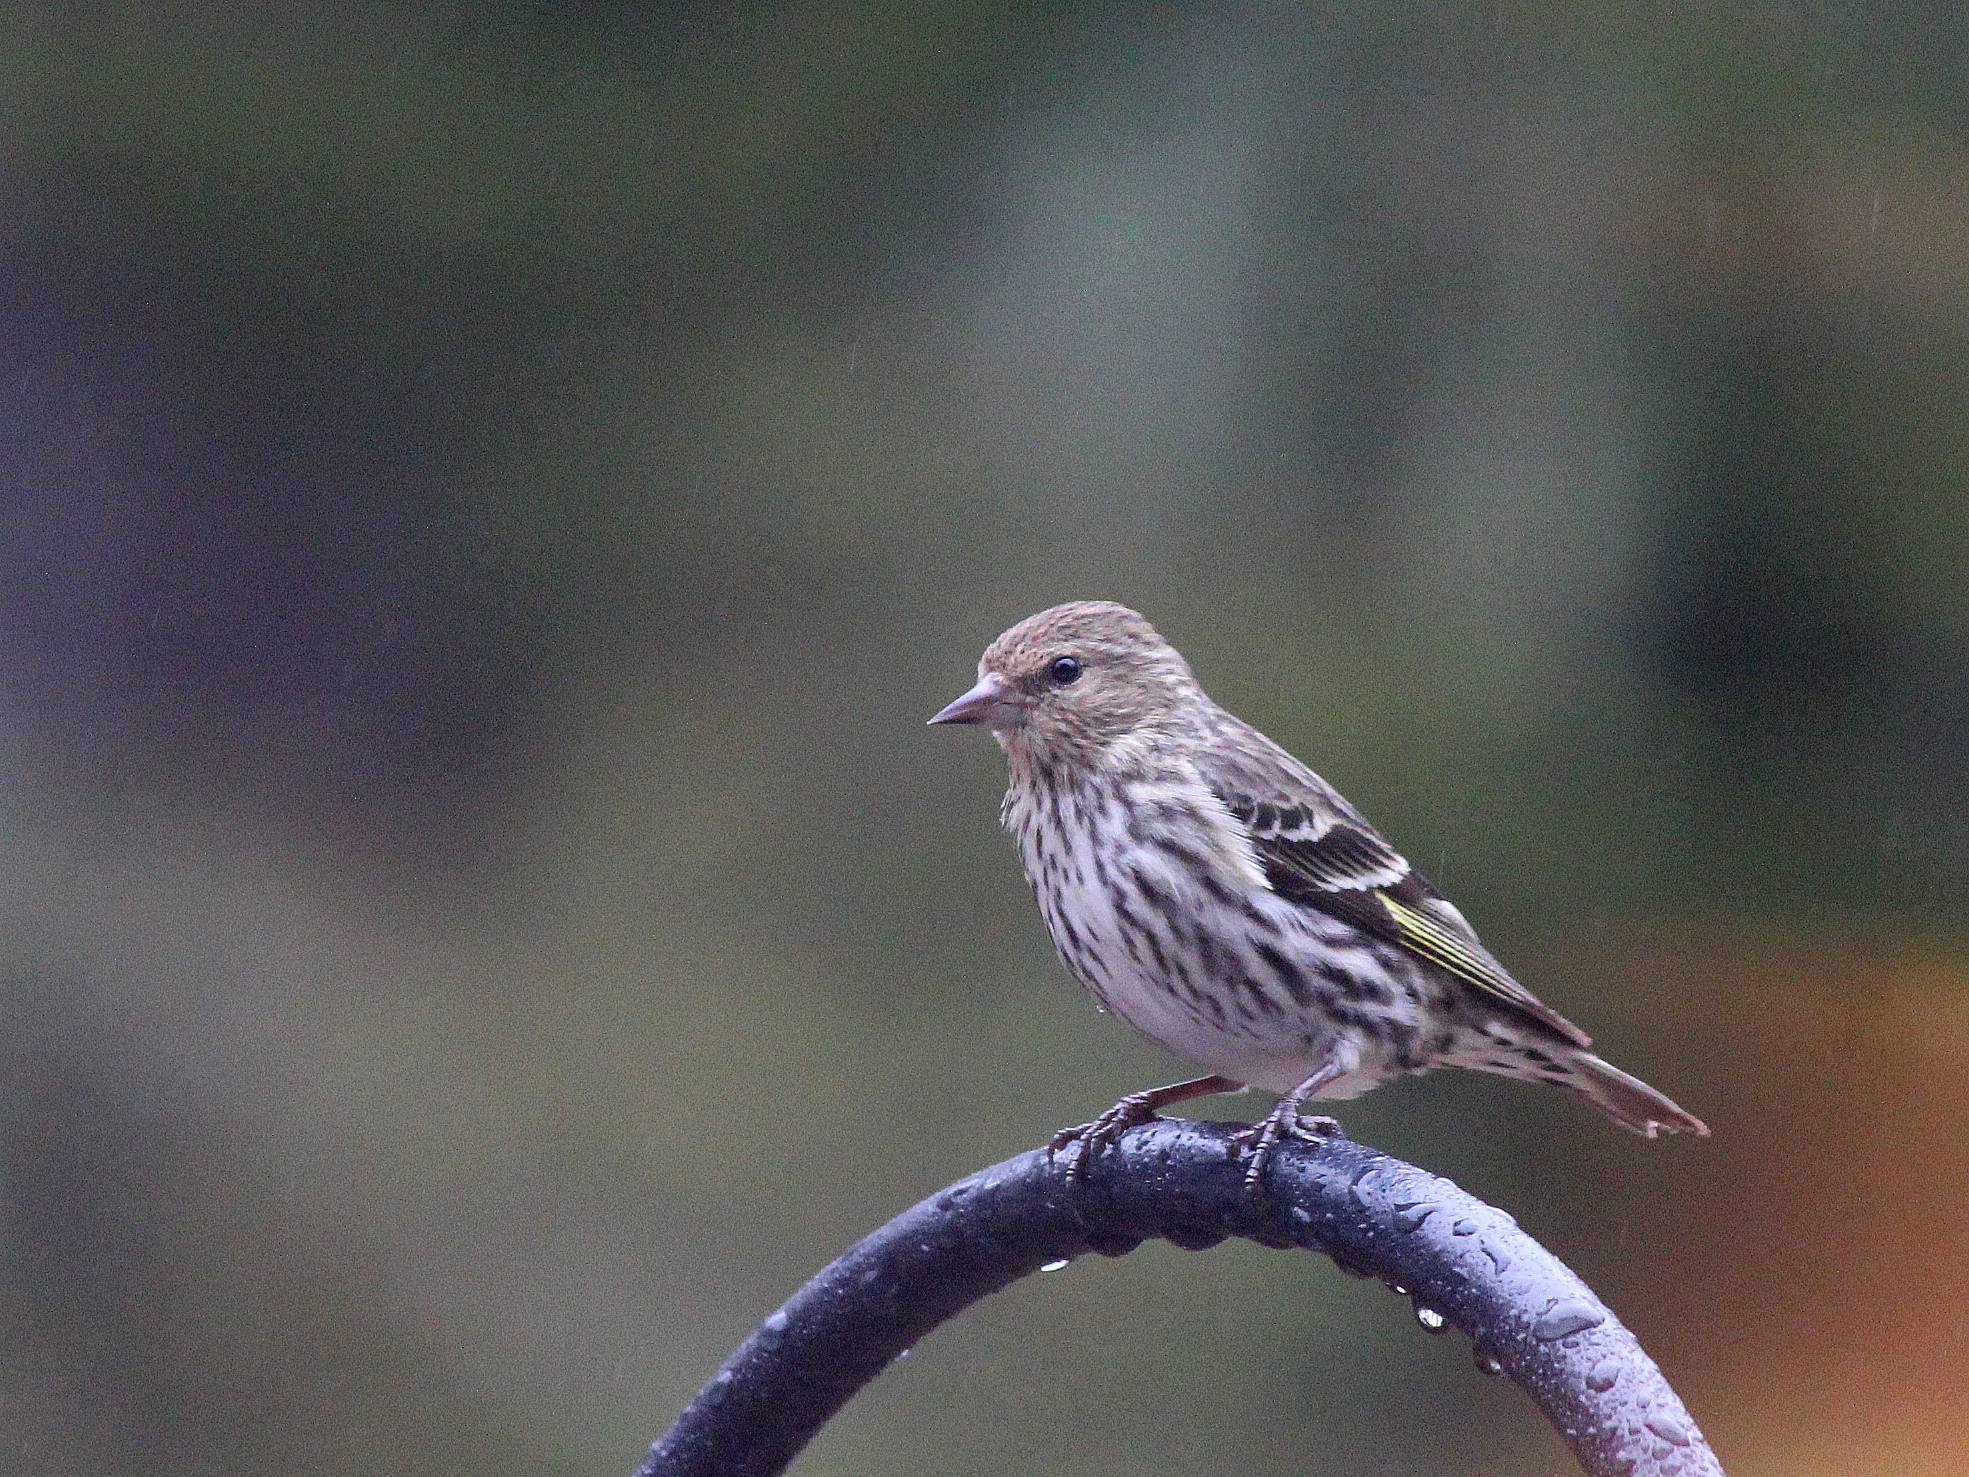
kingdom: Animalia
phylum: Chordata
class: Aves
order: Passeriformes
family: Fringillidae
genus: Spinus
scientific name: Spinus pinus
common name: Pine siskin
